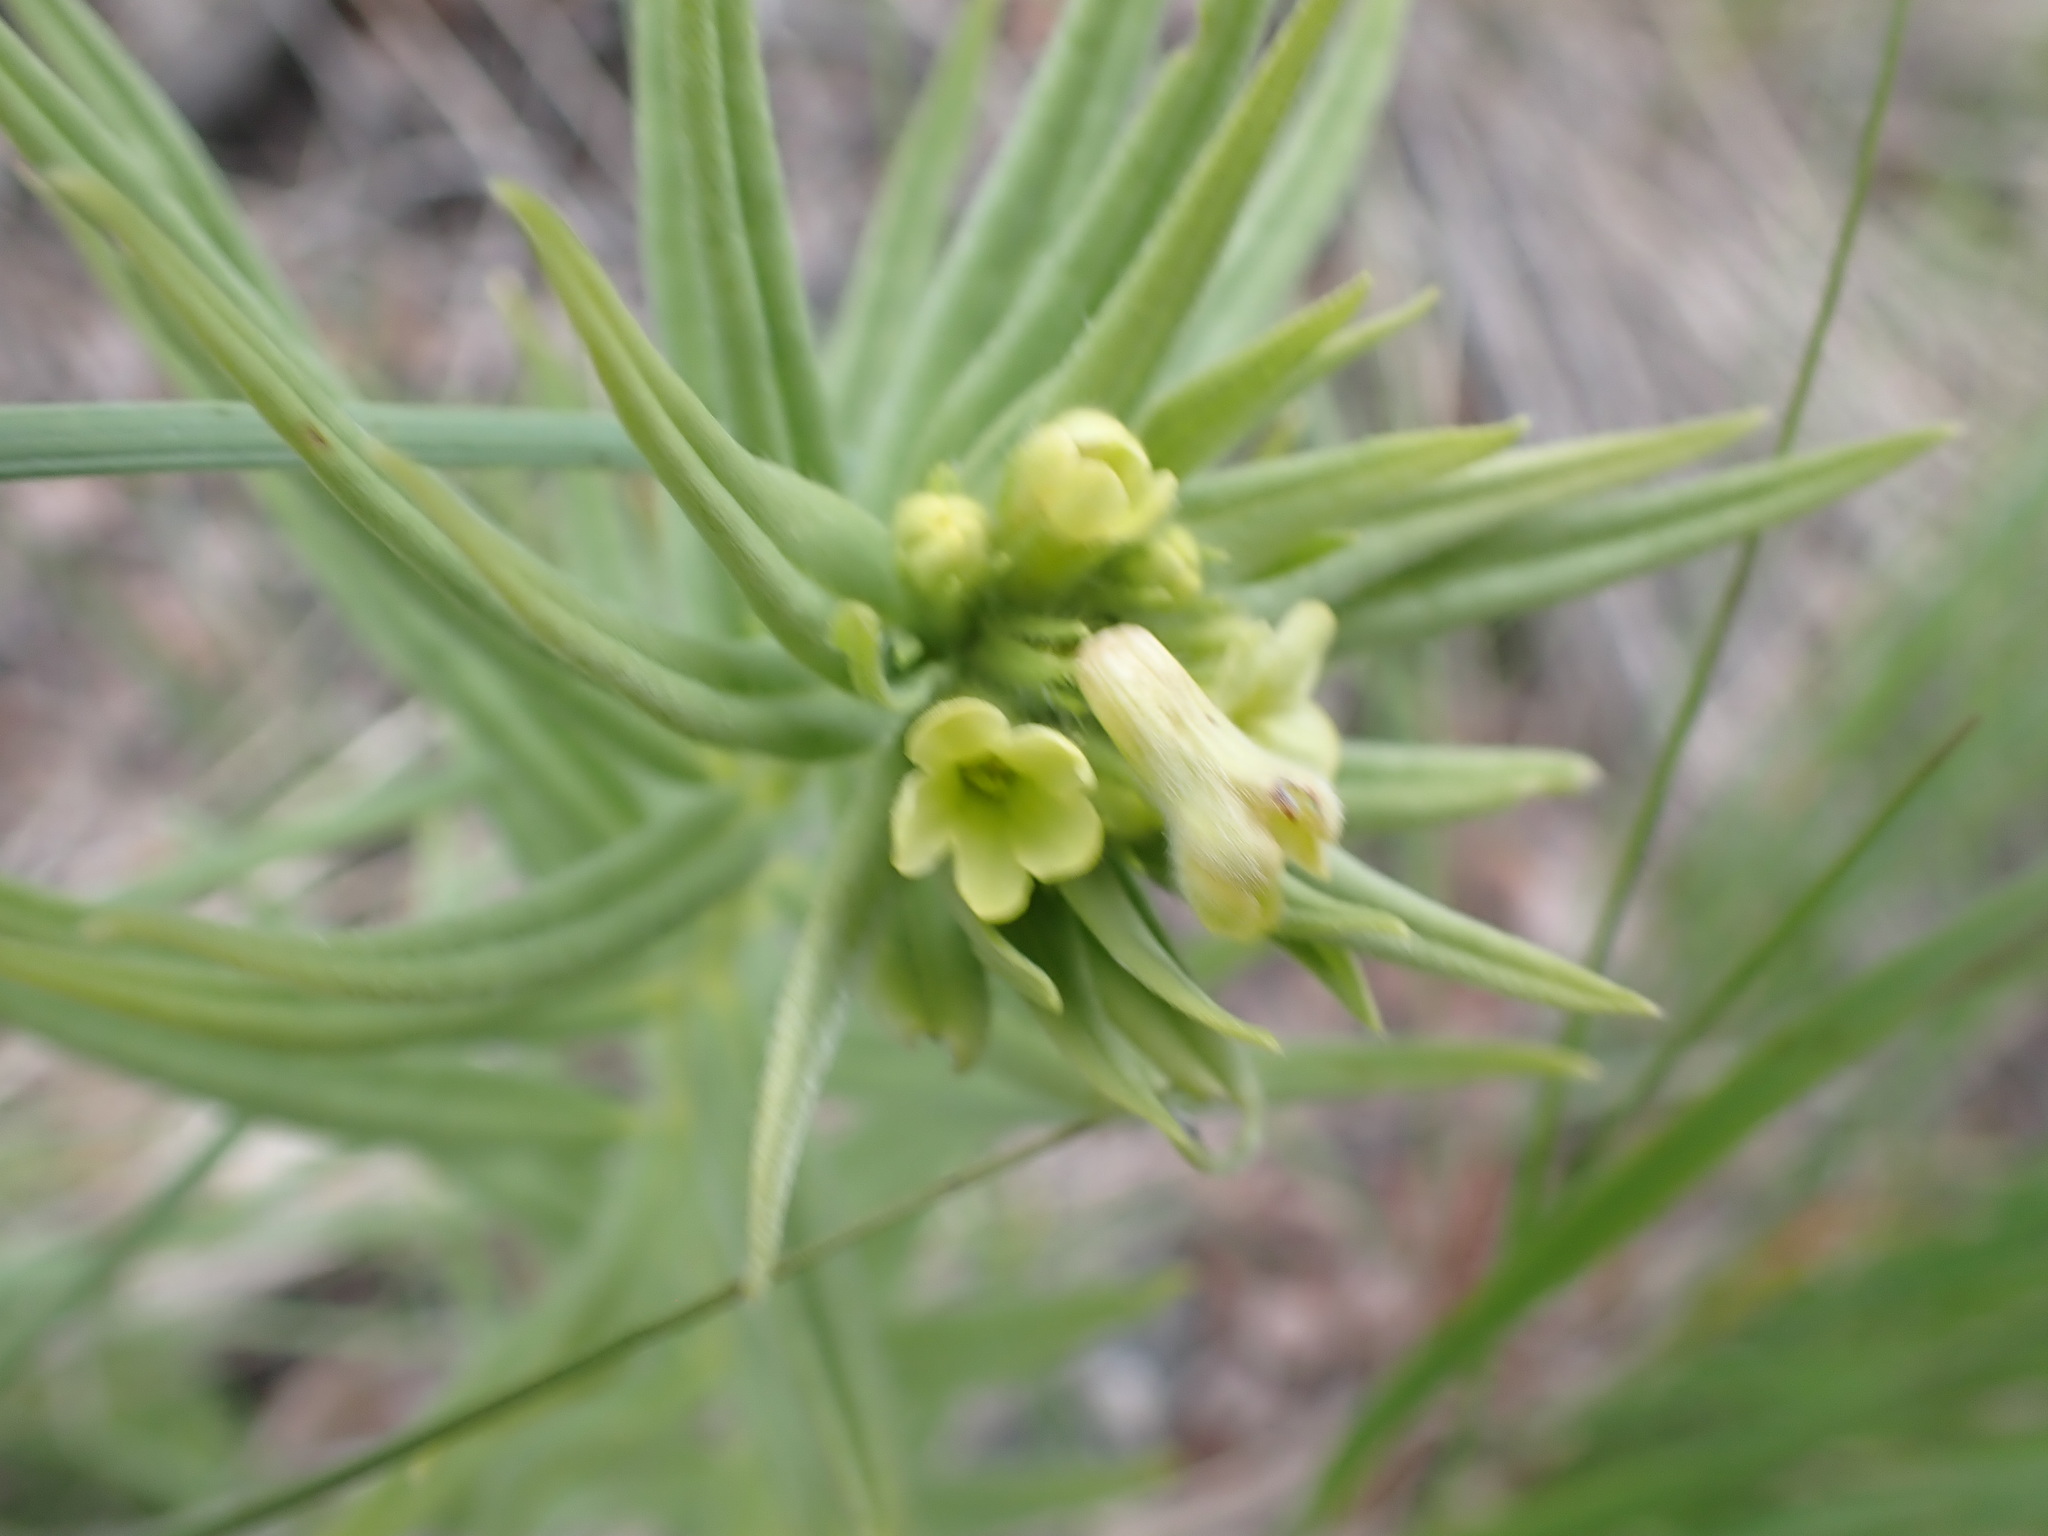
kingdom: Plantae
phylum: Tracheophyta
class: Magnoliopsida
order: Boraginales
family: Boraginaceae
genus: Lithospermum
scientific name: Lithospermum ruderale
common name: Western gromwell
